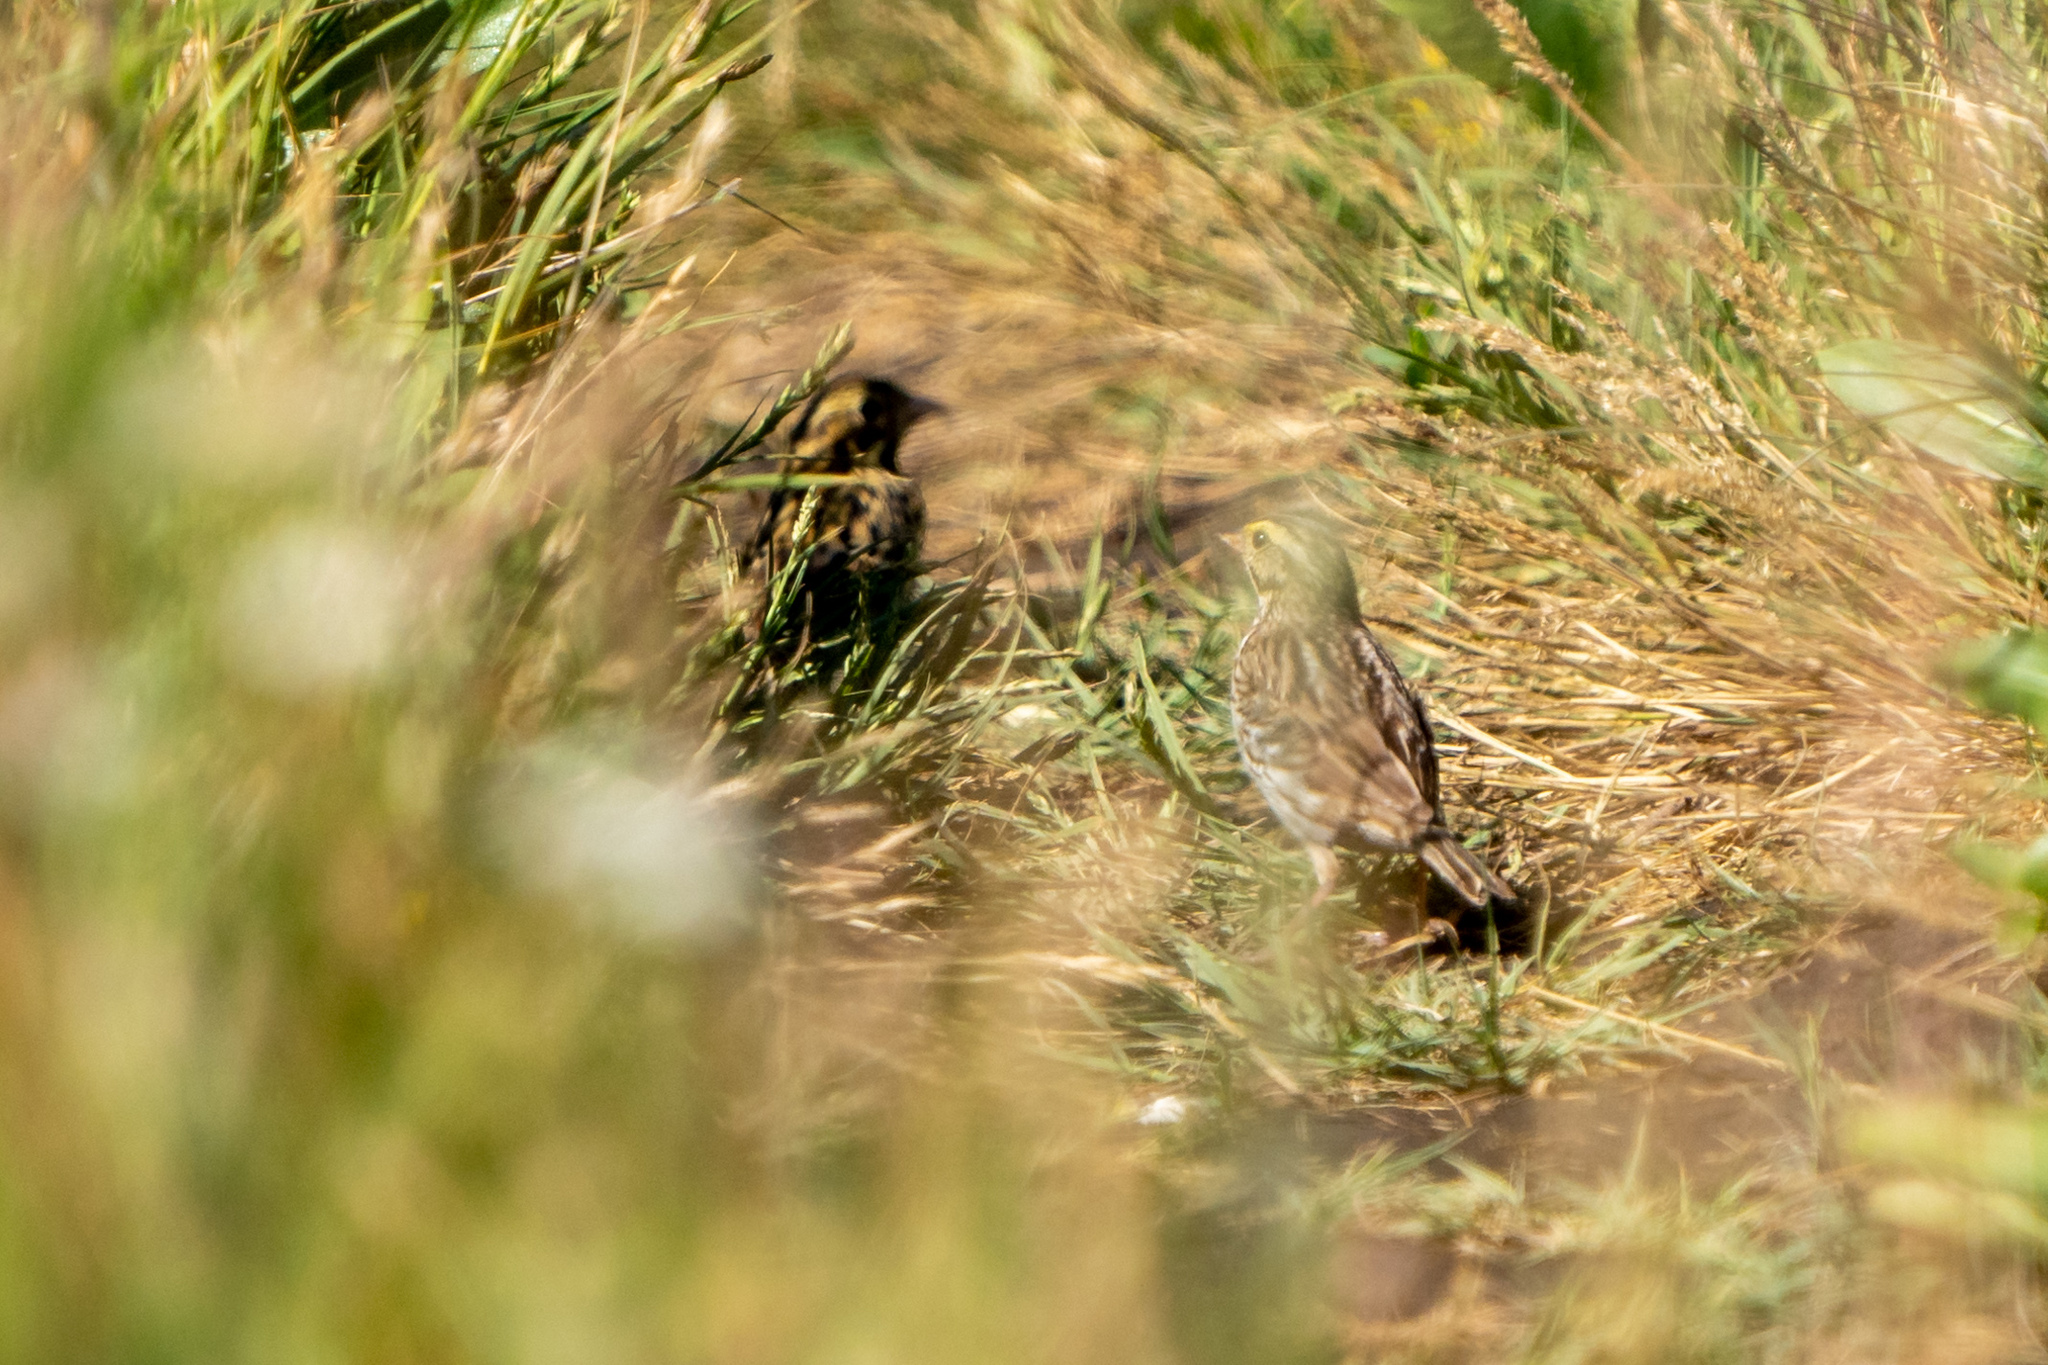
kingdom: Animalia
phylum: Chordata
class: Aves
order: Passeriformes
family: Passerellidae
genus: Passerculus
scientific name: Passerculus sandwichensis
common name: Savannah sparrow
